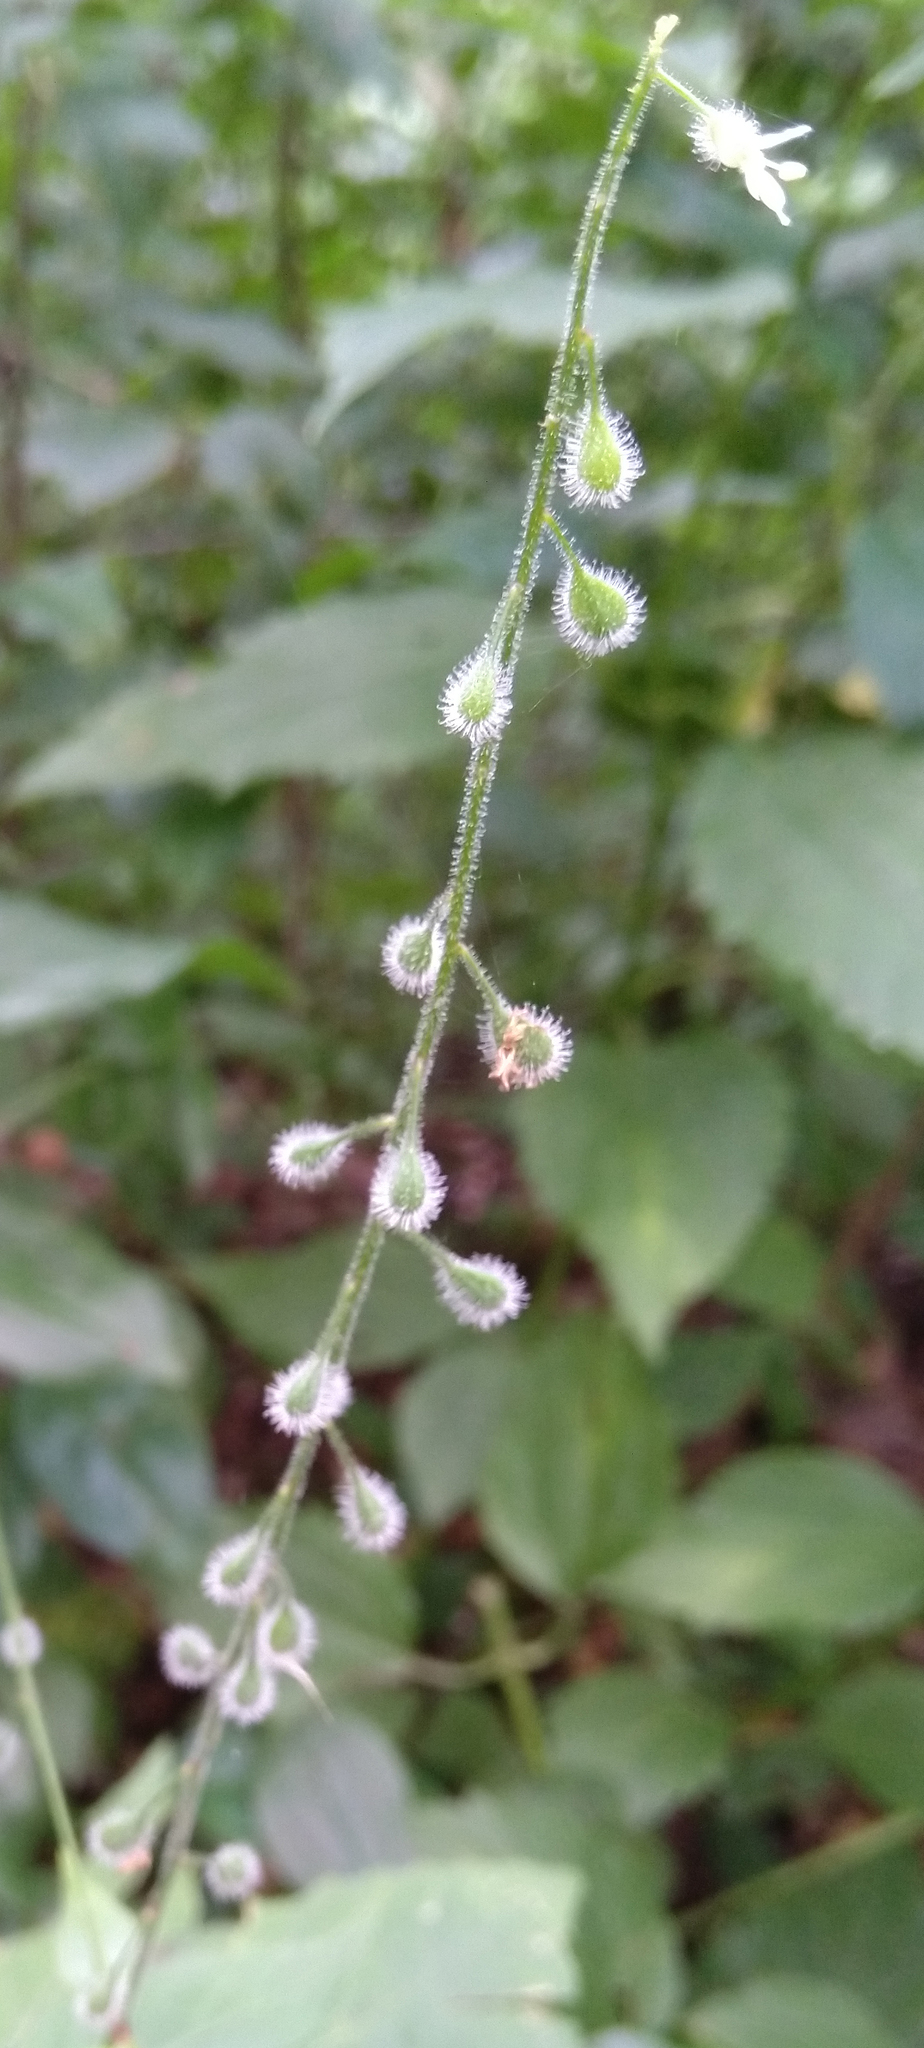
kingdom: Plantae
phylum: Tracheophyta
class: Magnoliopsida
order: Myrtales
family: Onagraceae
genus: Circaea
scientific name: Circaea canadensis
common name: Broad-leaved enchanter's nightshade
